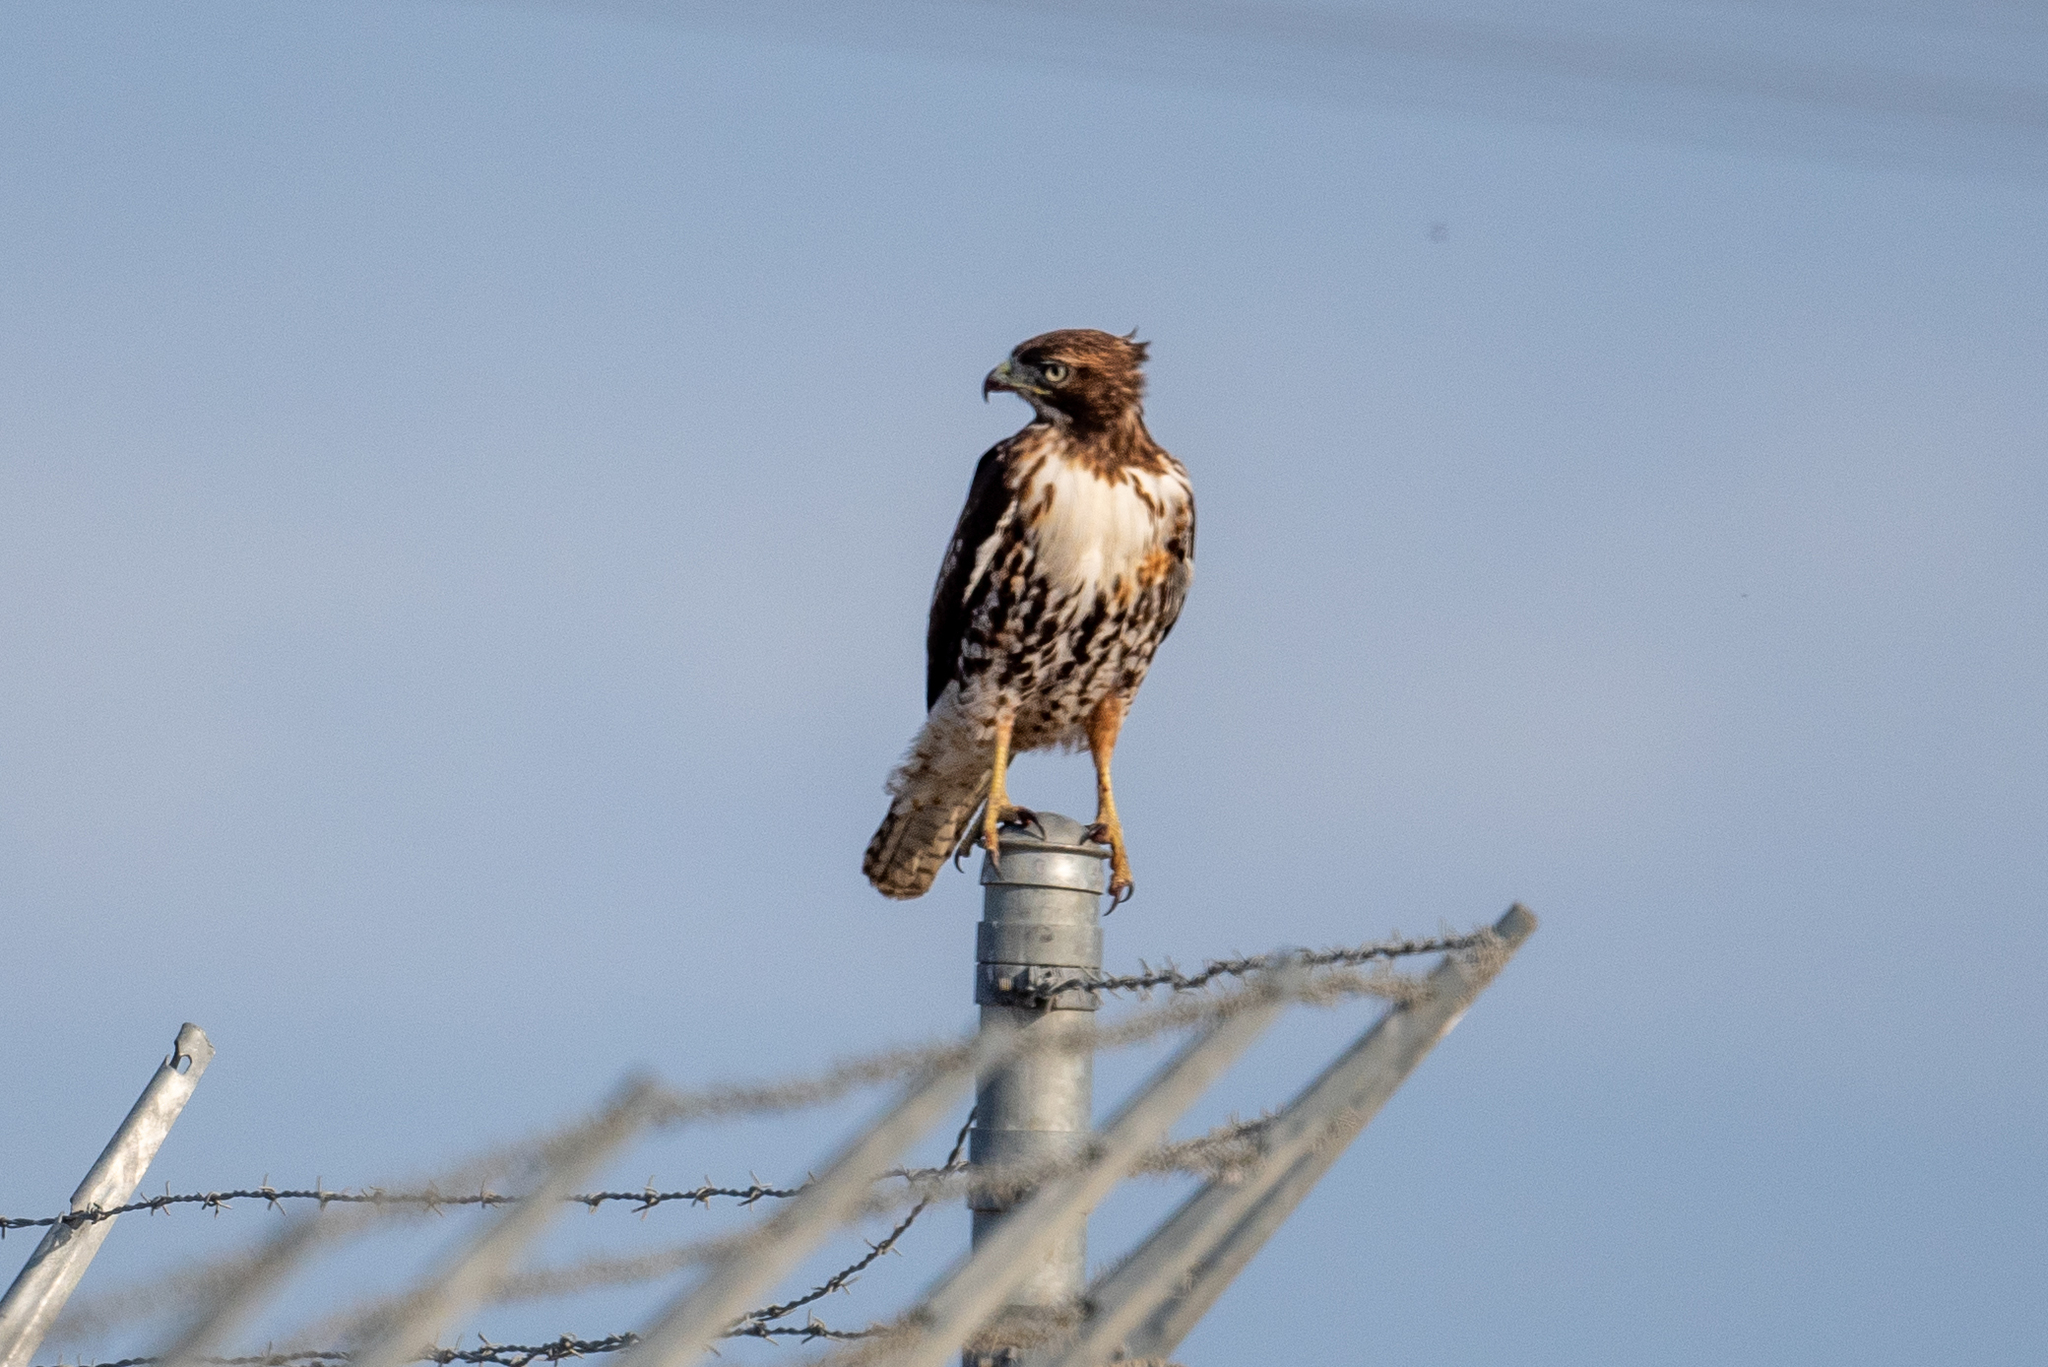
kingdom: Animalia
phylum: Chordata
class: Aves
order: Accipitriformes
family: Accipitridae
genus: Buteo
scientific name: Buteo jamaicensis
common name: Red-tailed hawk
